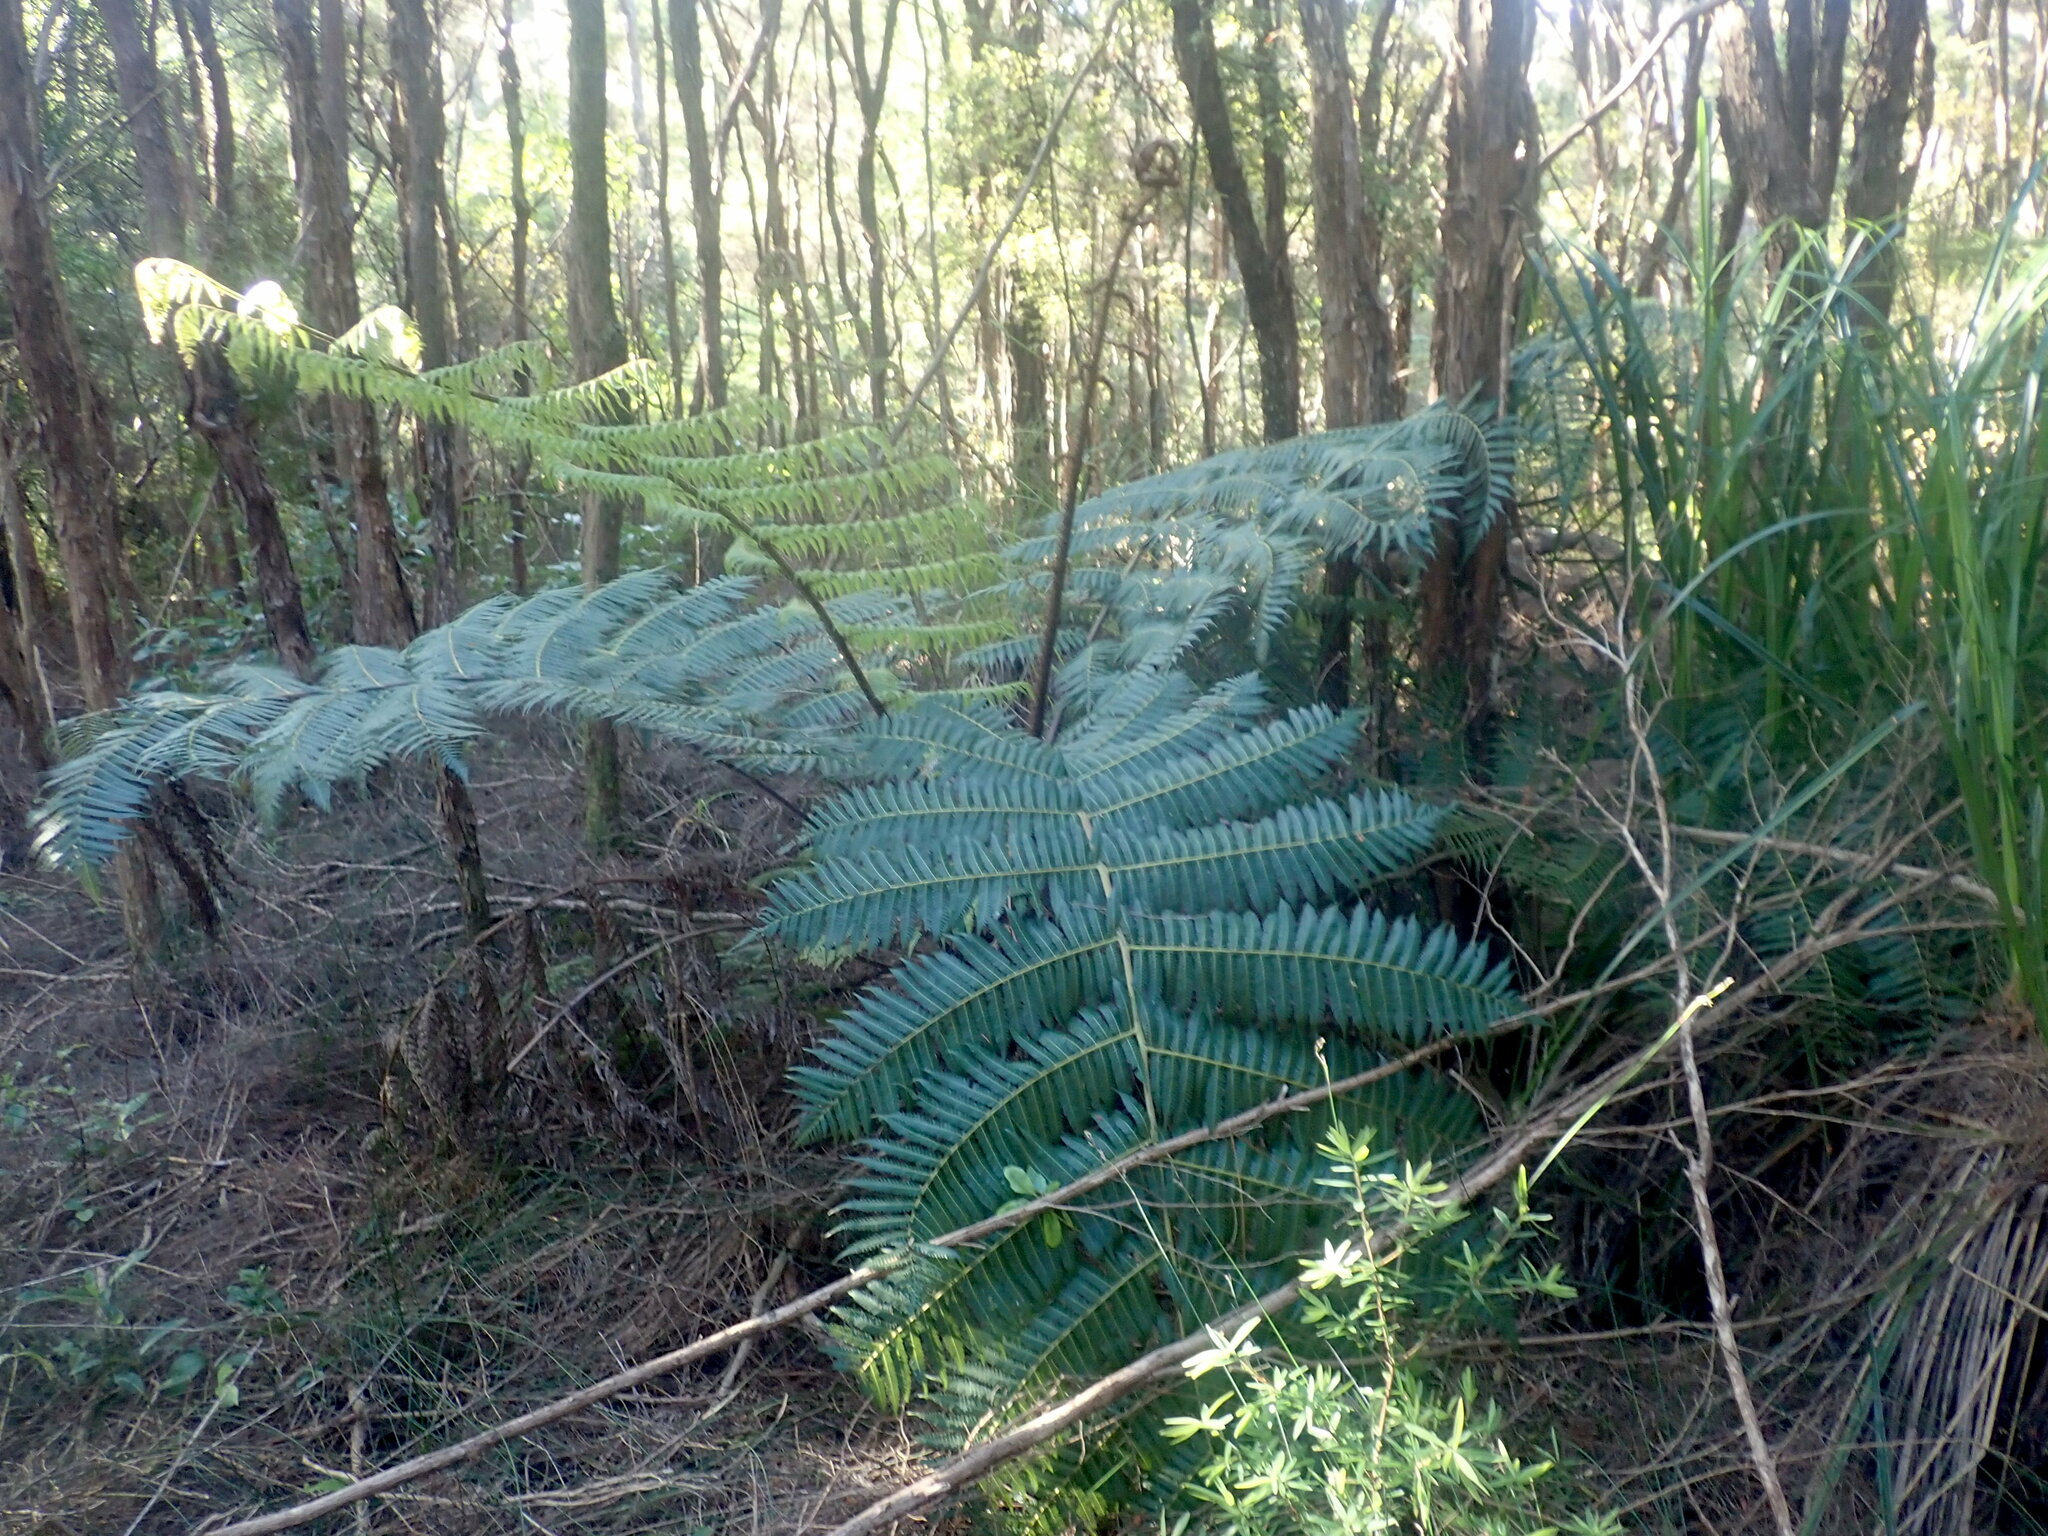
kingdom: Plantae
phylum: Tracheophyta
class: Polypodiopsida
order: Cyatheales
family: Cyatheaceae
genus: Alsophila
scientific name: Alsophila dealbata
